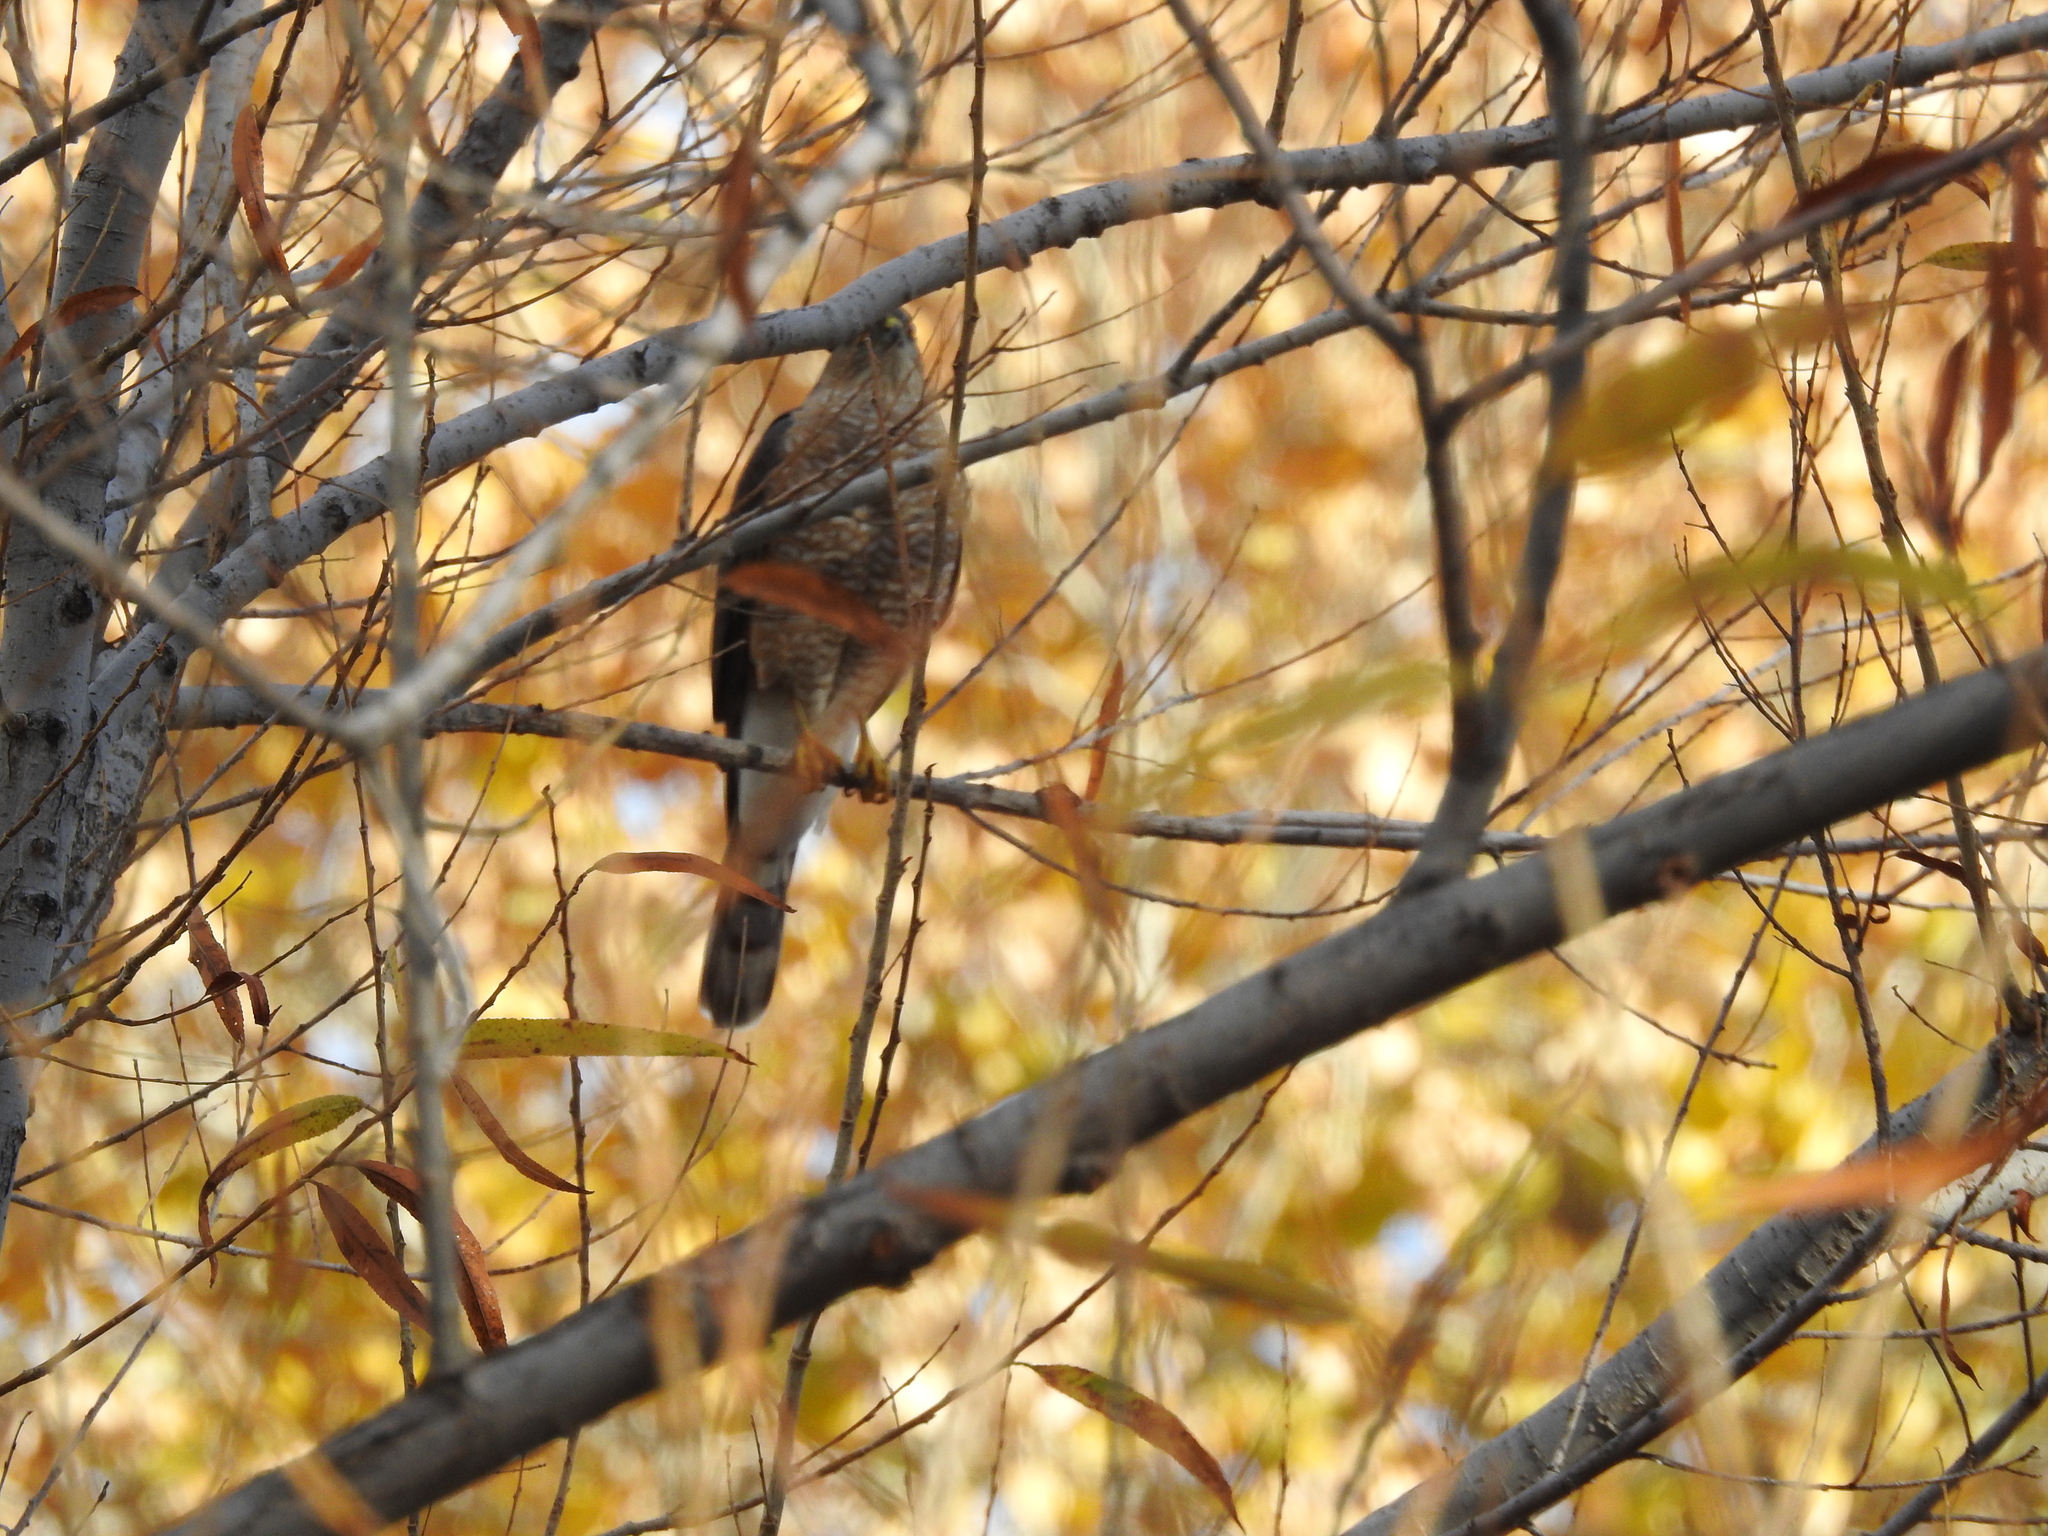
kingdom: Animalia
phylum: Chordata
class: Aves
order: Accipitriformes
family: Accipitridae
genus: Accipiter
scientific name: Accipiter striatus
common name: Sharp-shinned hawk
